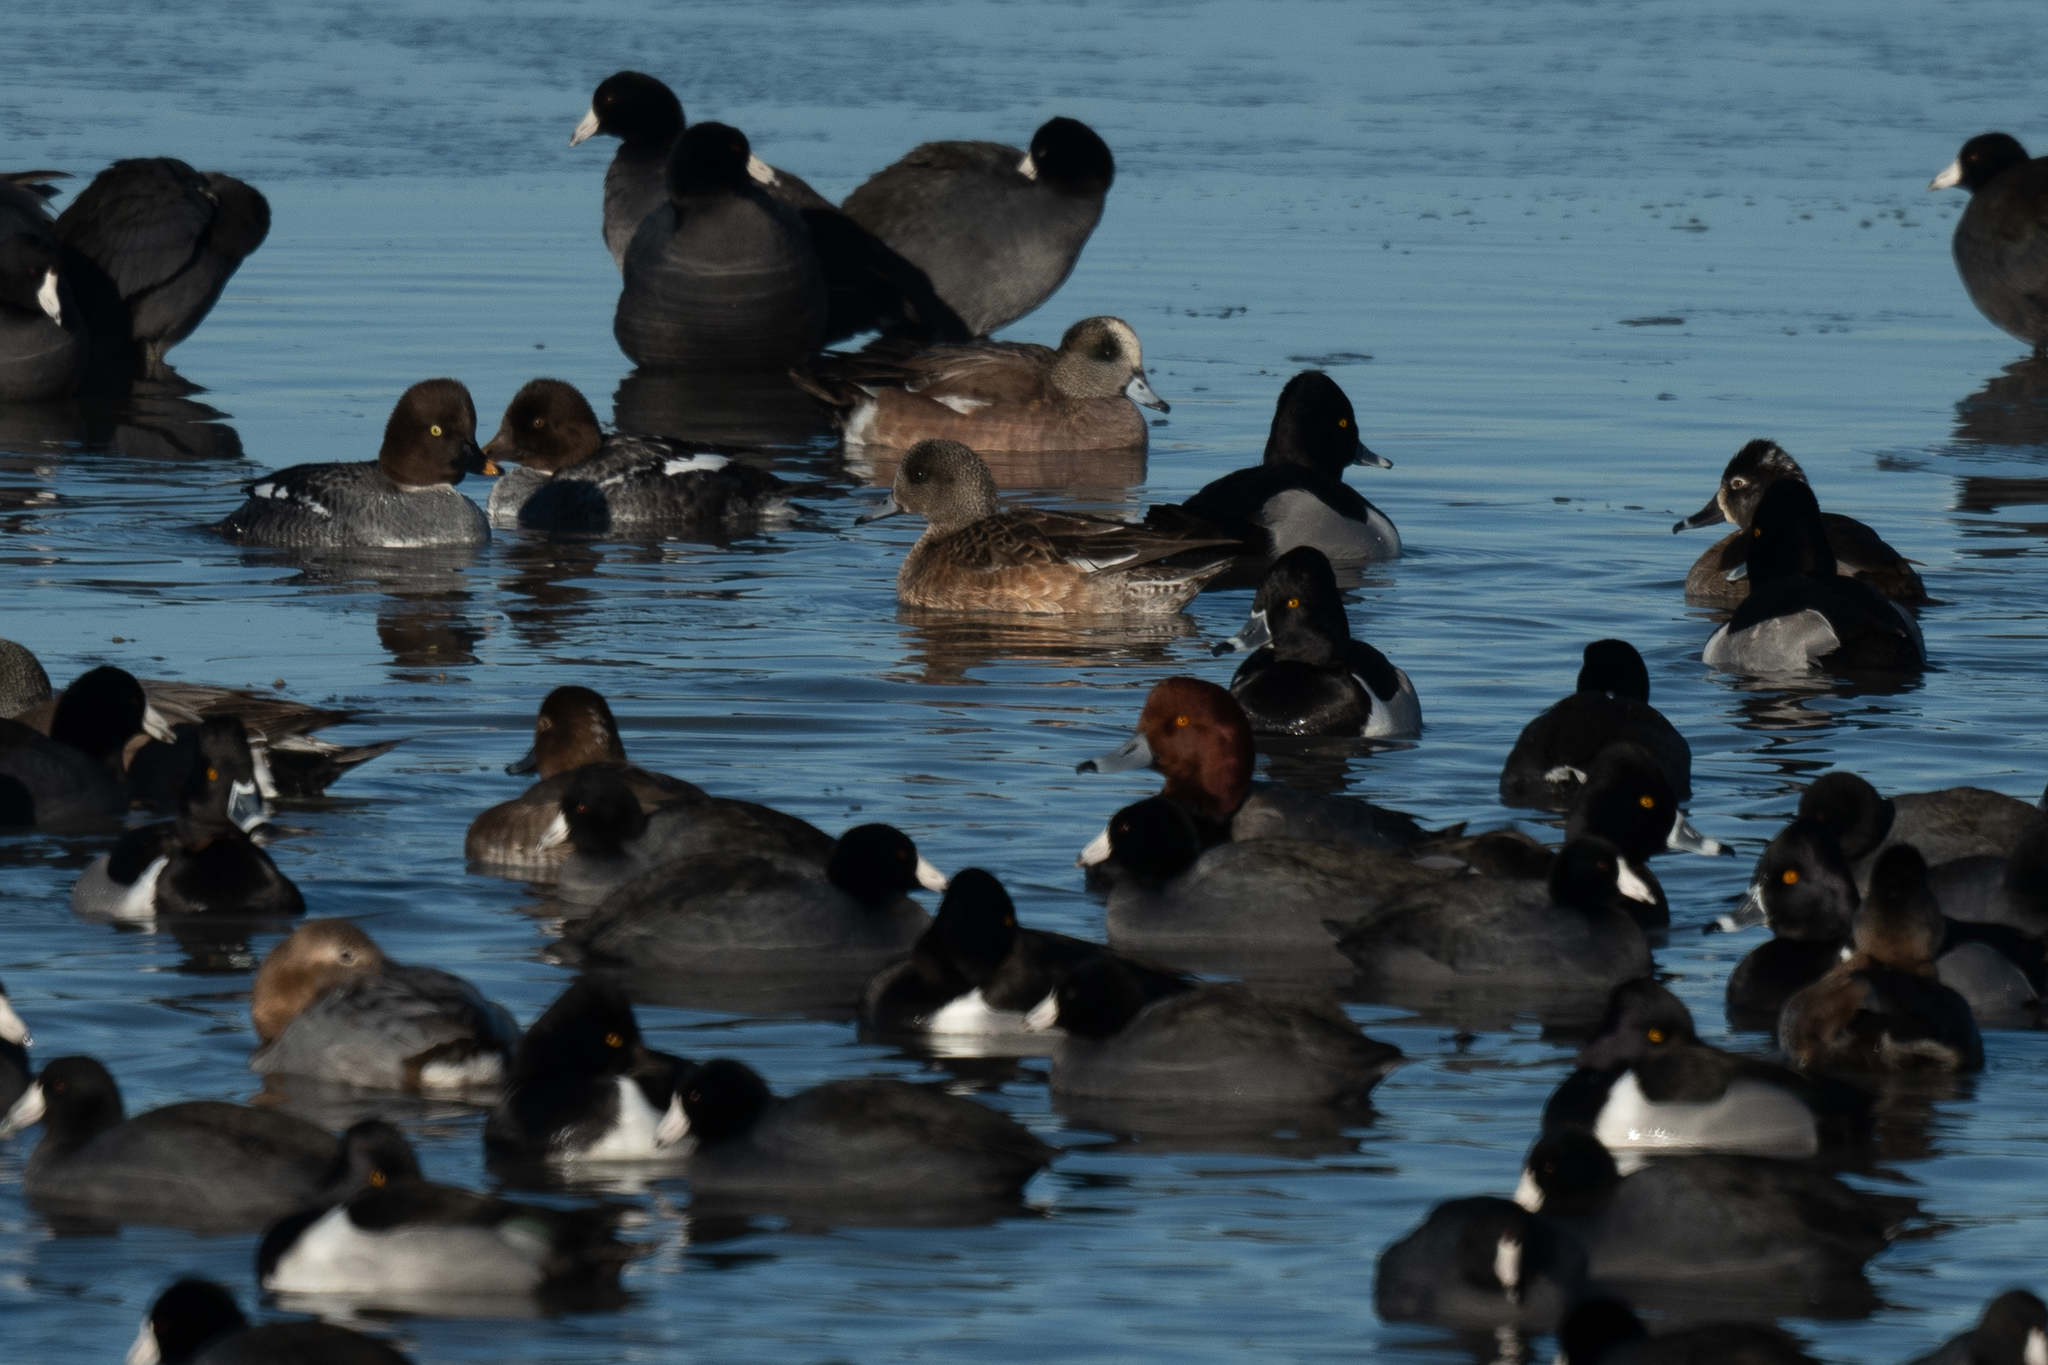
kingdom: Animalia
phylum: Chordata
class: Aves
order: Anseriformes
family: Anatidae
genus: Aythya
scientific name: Aythya americana
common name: Redhead
